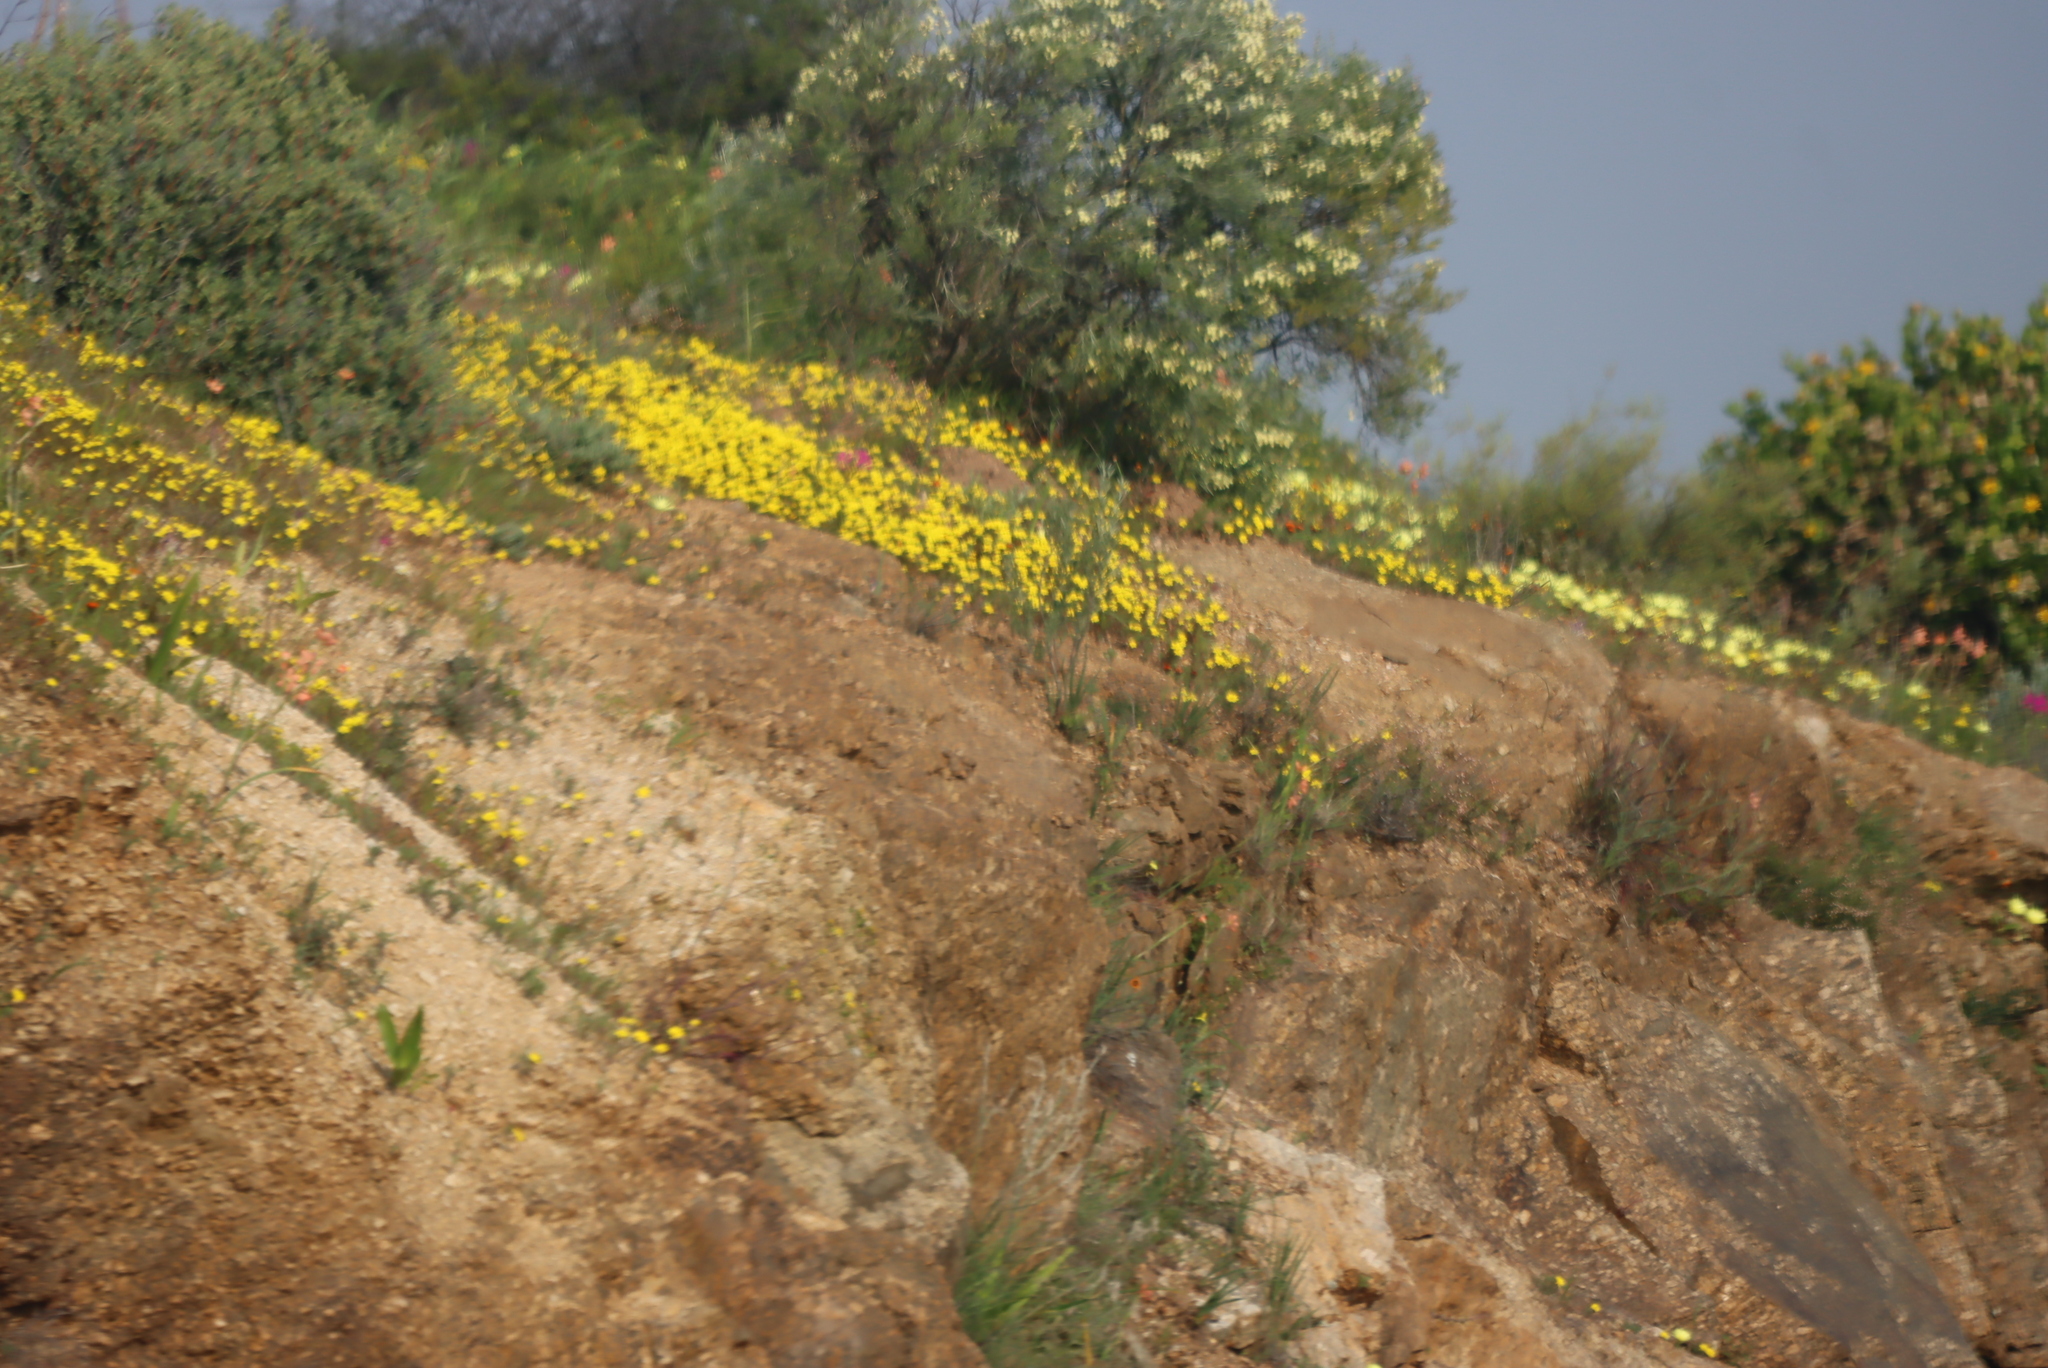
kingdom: Plantae
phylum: Tracheophyta
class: Magnoliopsida
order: Fabales
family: Fabaceae
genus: Calobota
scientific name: Calobota sericea
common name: Silver-pea
